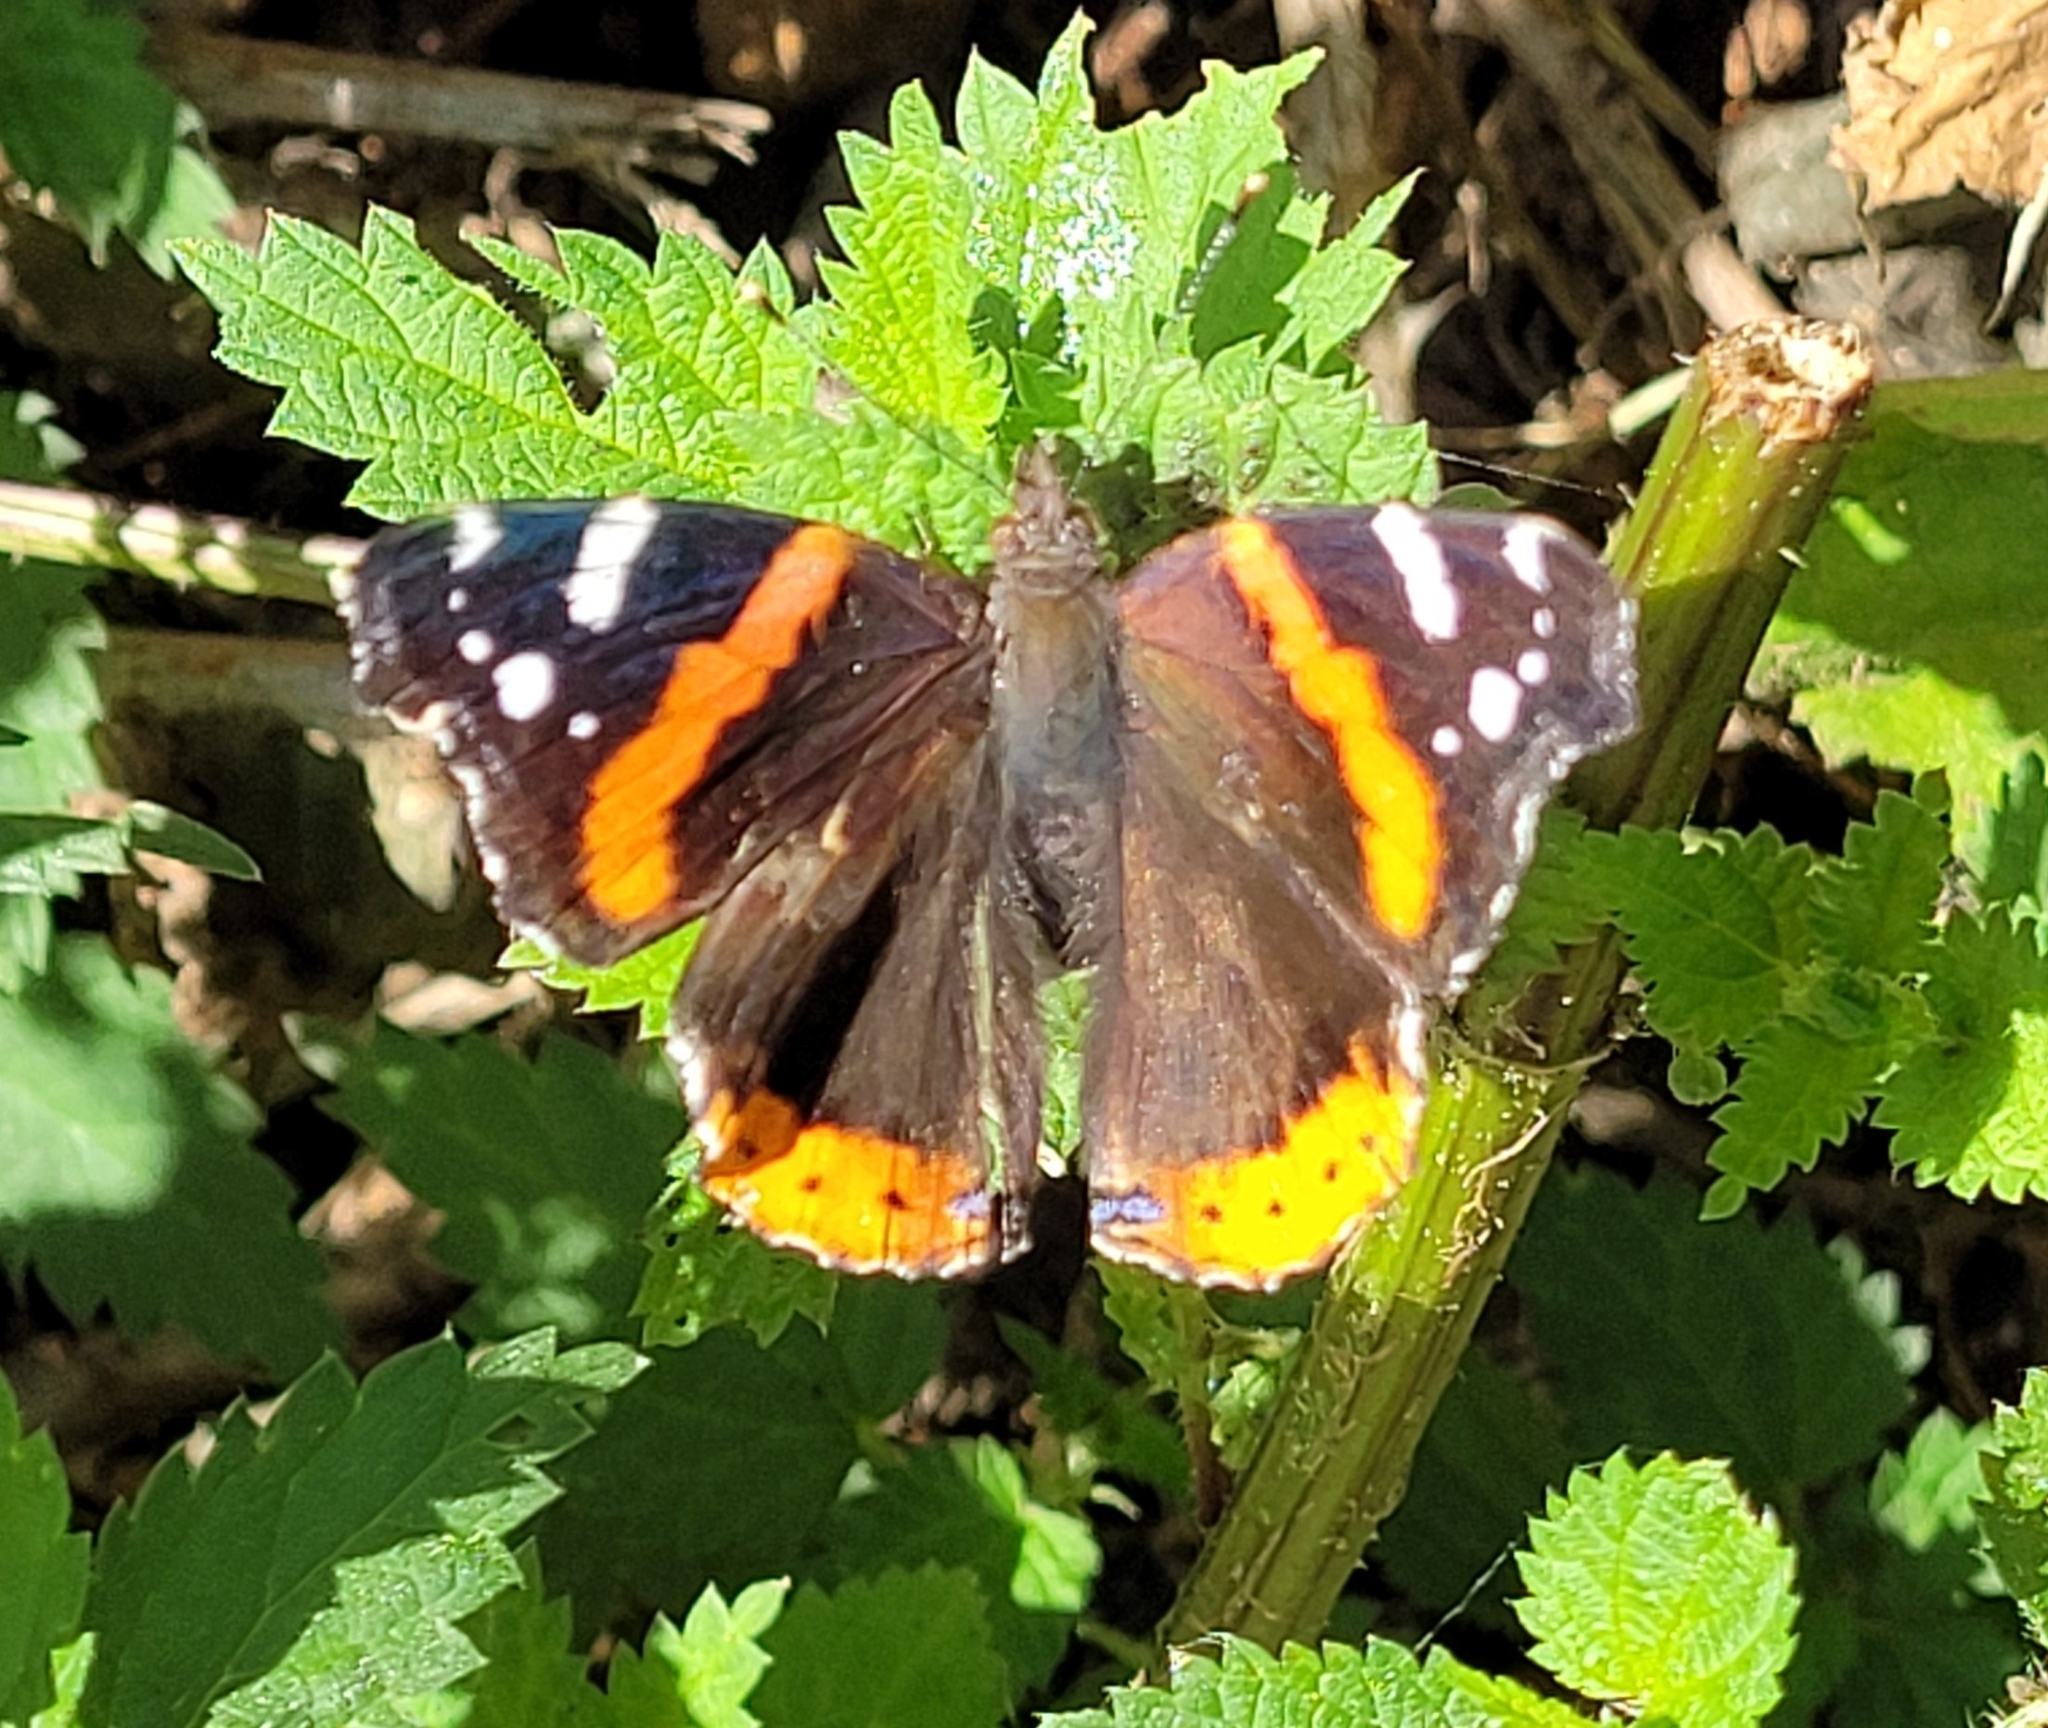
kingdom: Animalia
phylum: Arthropoda
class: Insecta
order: Lepidoptera
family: Nymphalidae
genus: Vanessa
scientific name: Vanessa atalanta
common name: Red admiral
